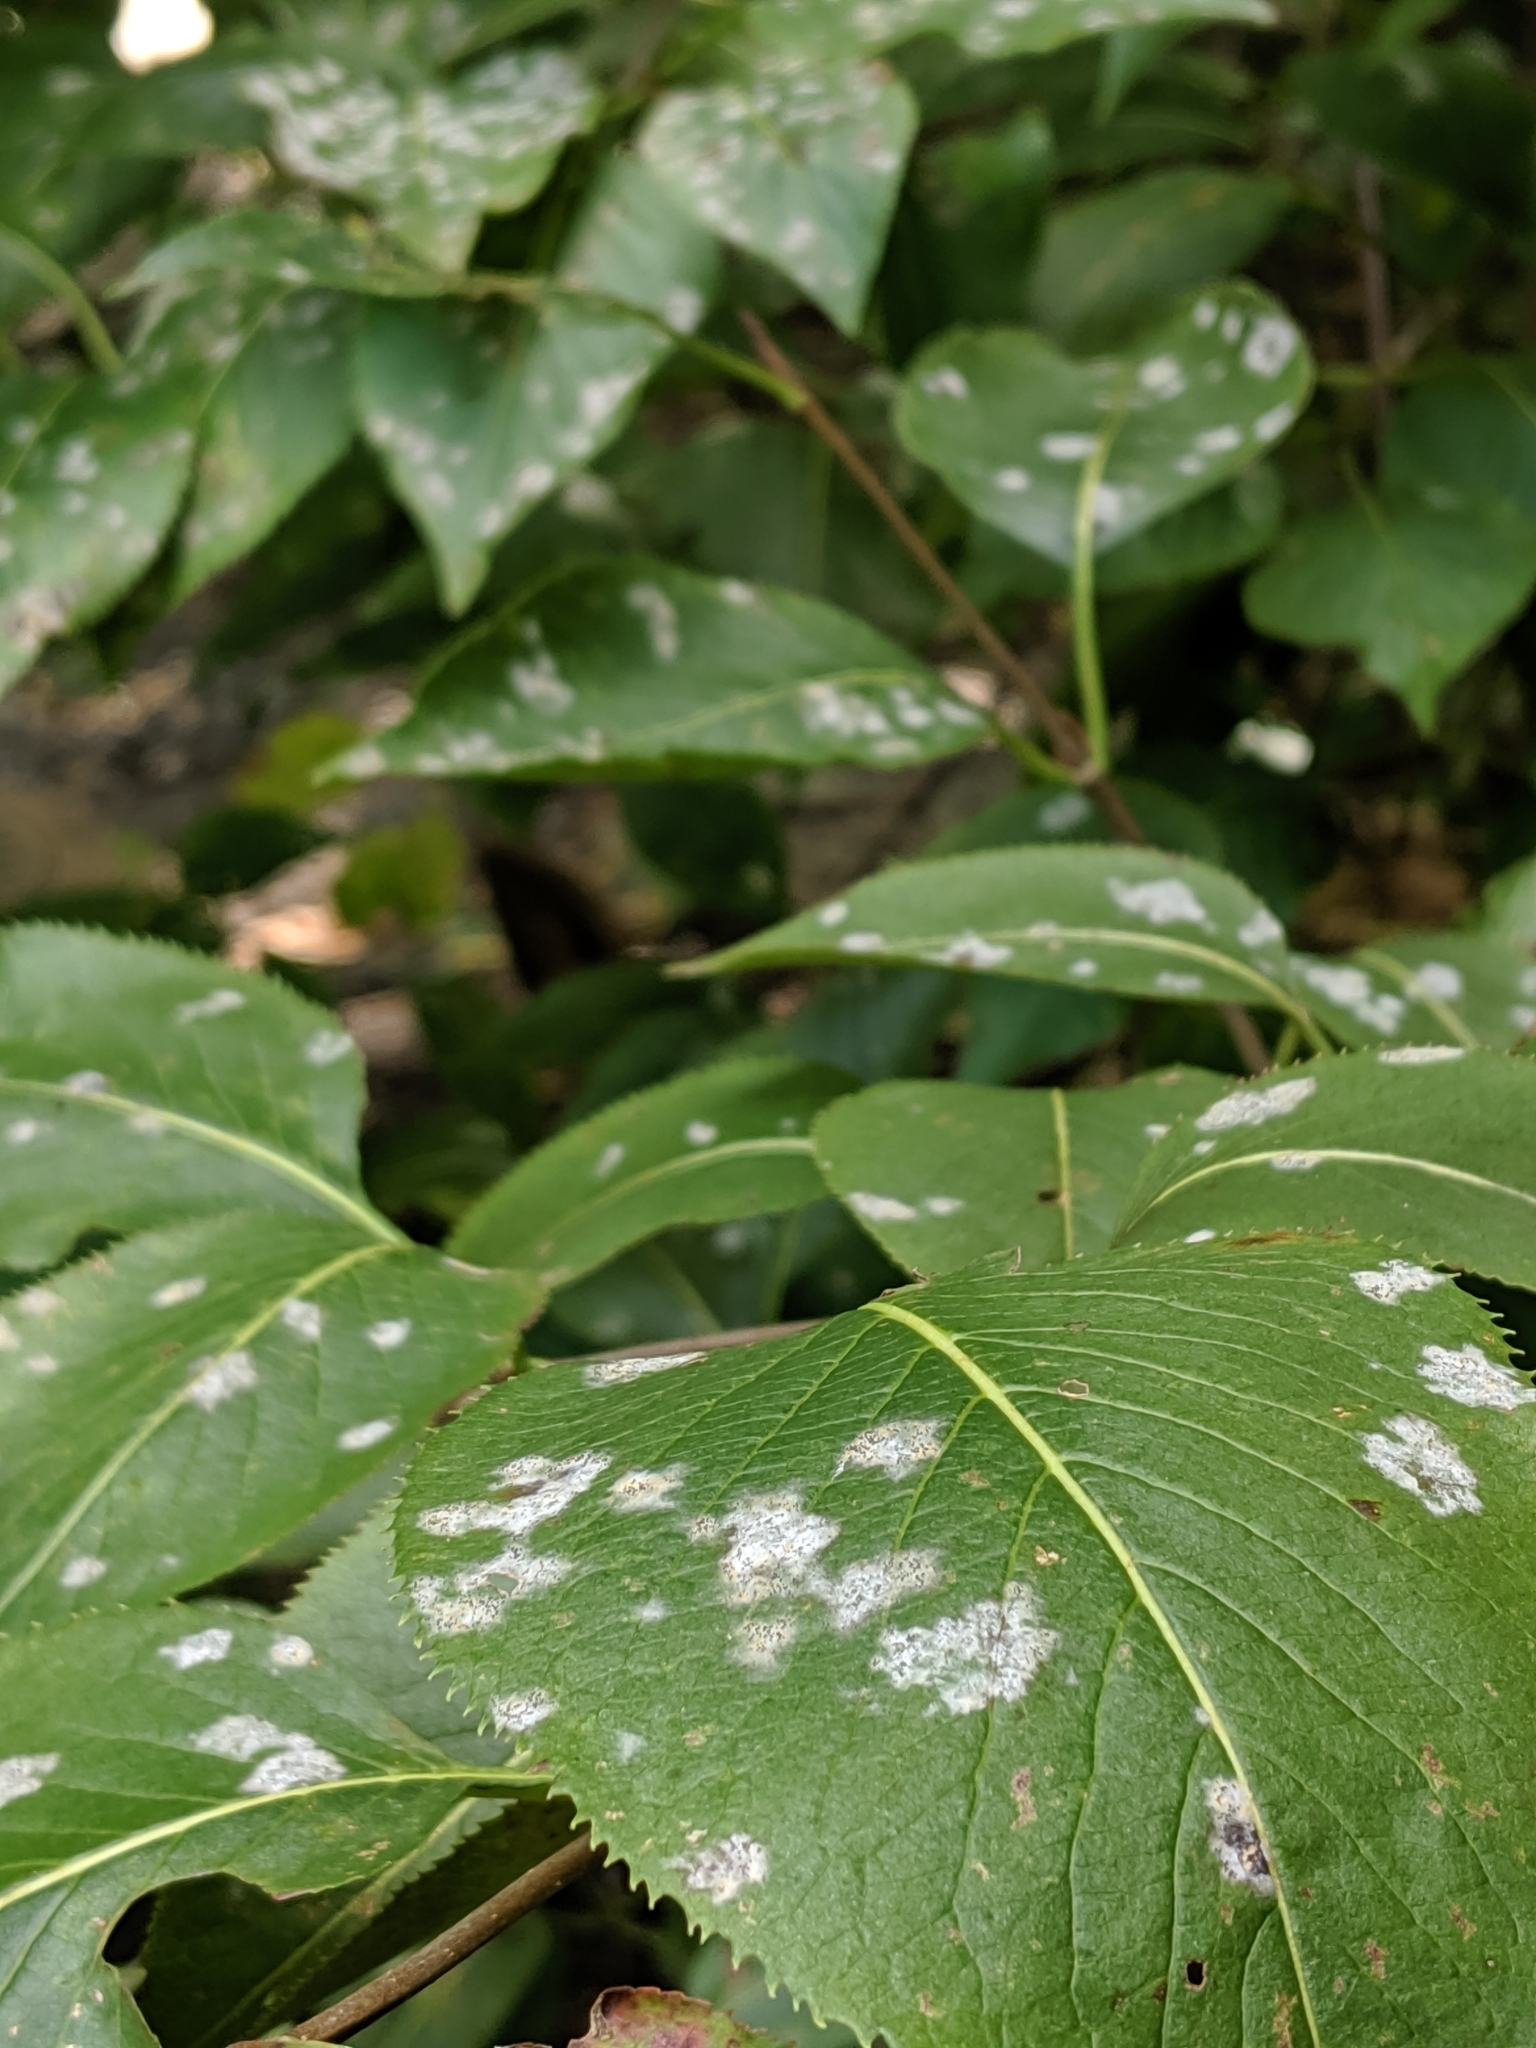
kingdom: Fungi
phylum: Ascomycota
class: Leotiomycetes
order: Helotiales
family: Erysiphaceae
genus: Erysiphe
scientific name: Erysiphe viburni
